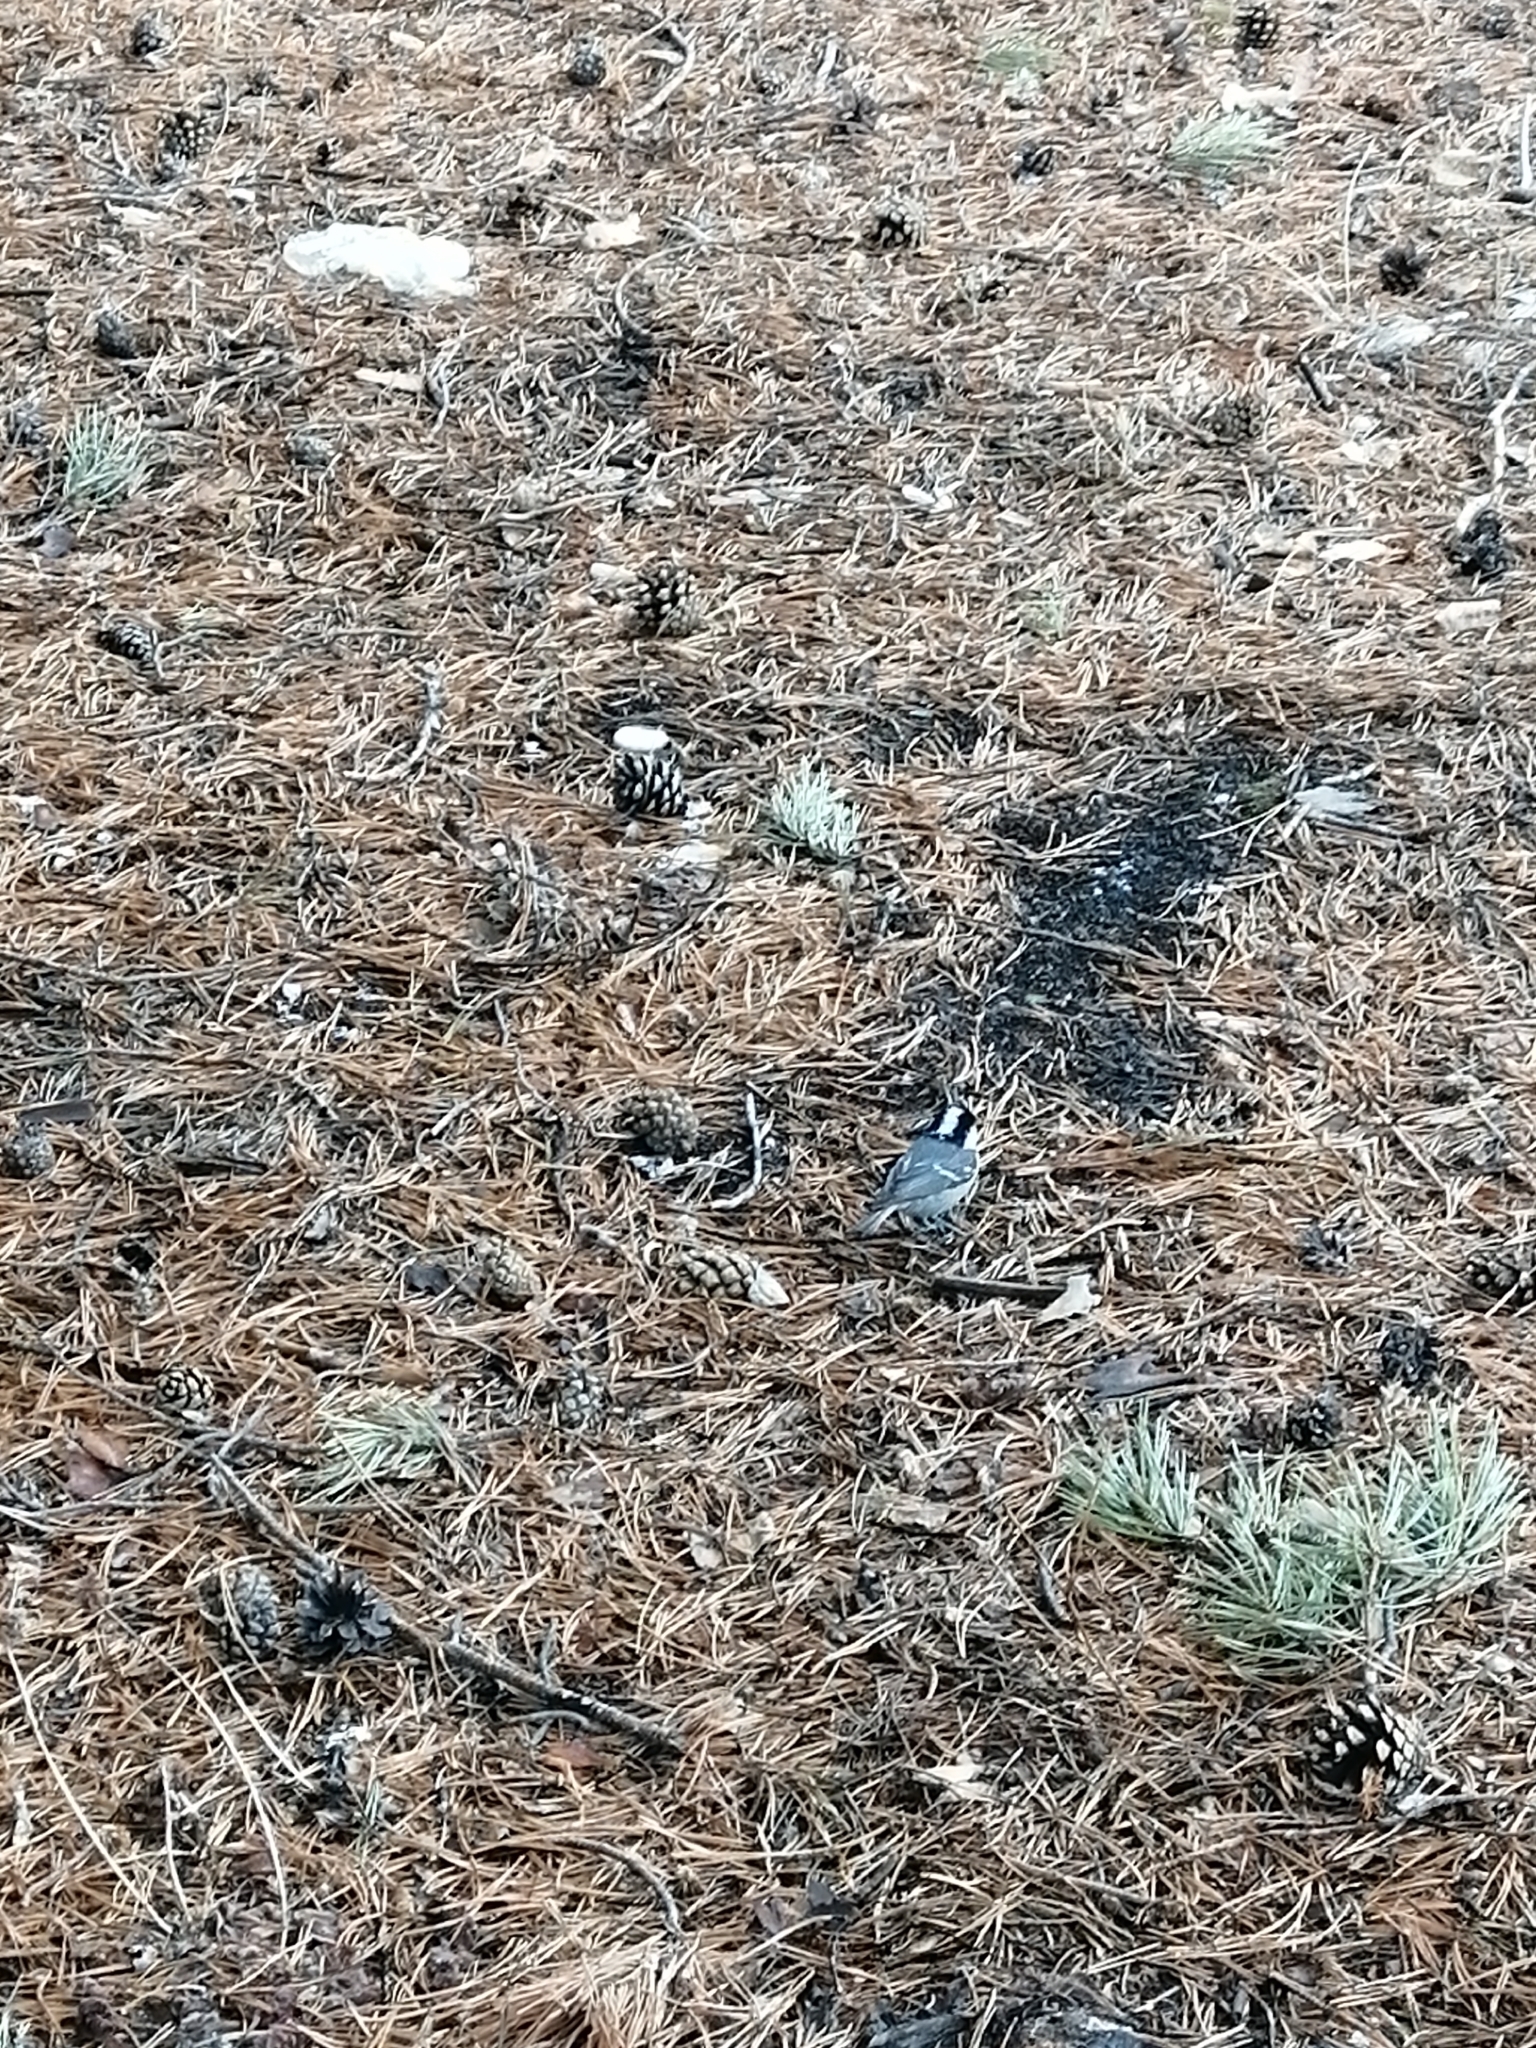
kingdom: Animalia
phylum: Chordata
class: Aves
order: Passeriformes
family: Paridae
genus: Periparus
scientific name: Periparus ater
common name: Coal tit
